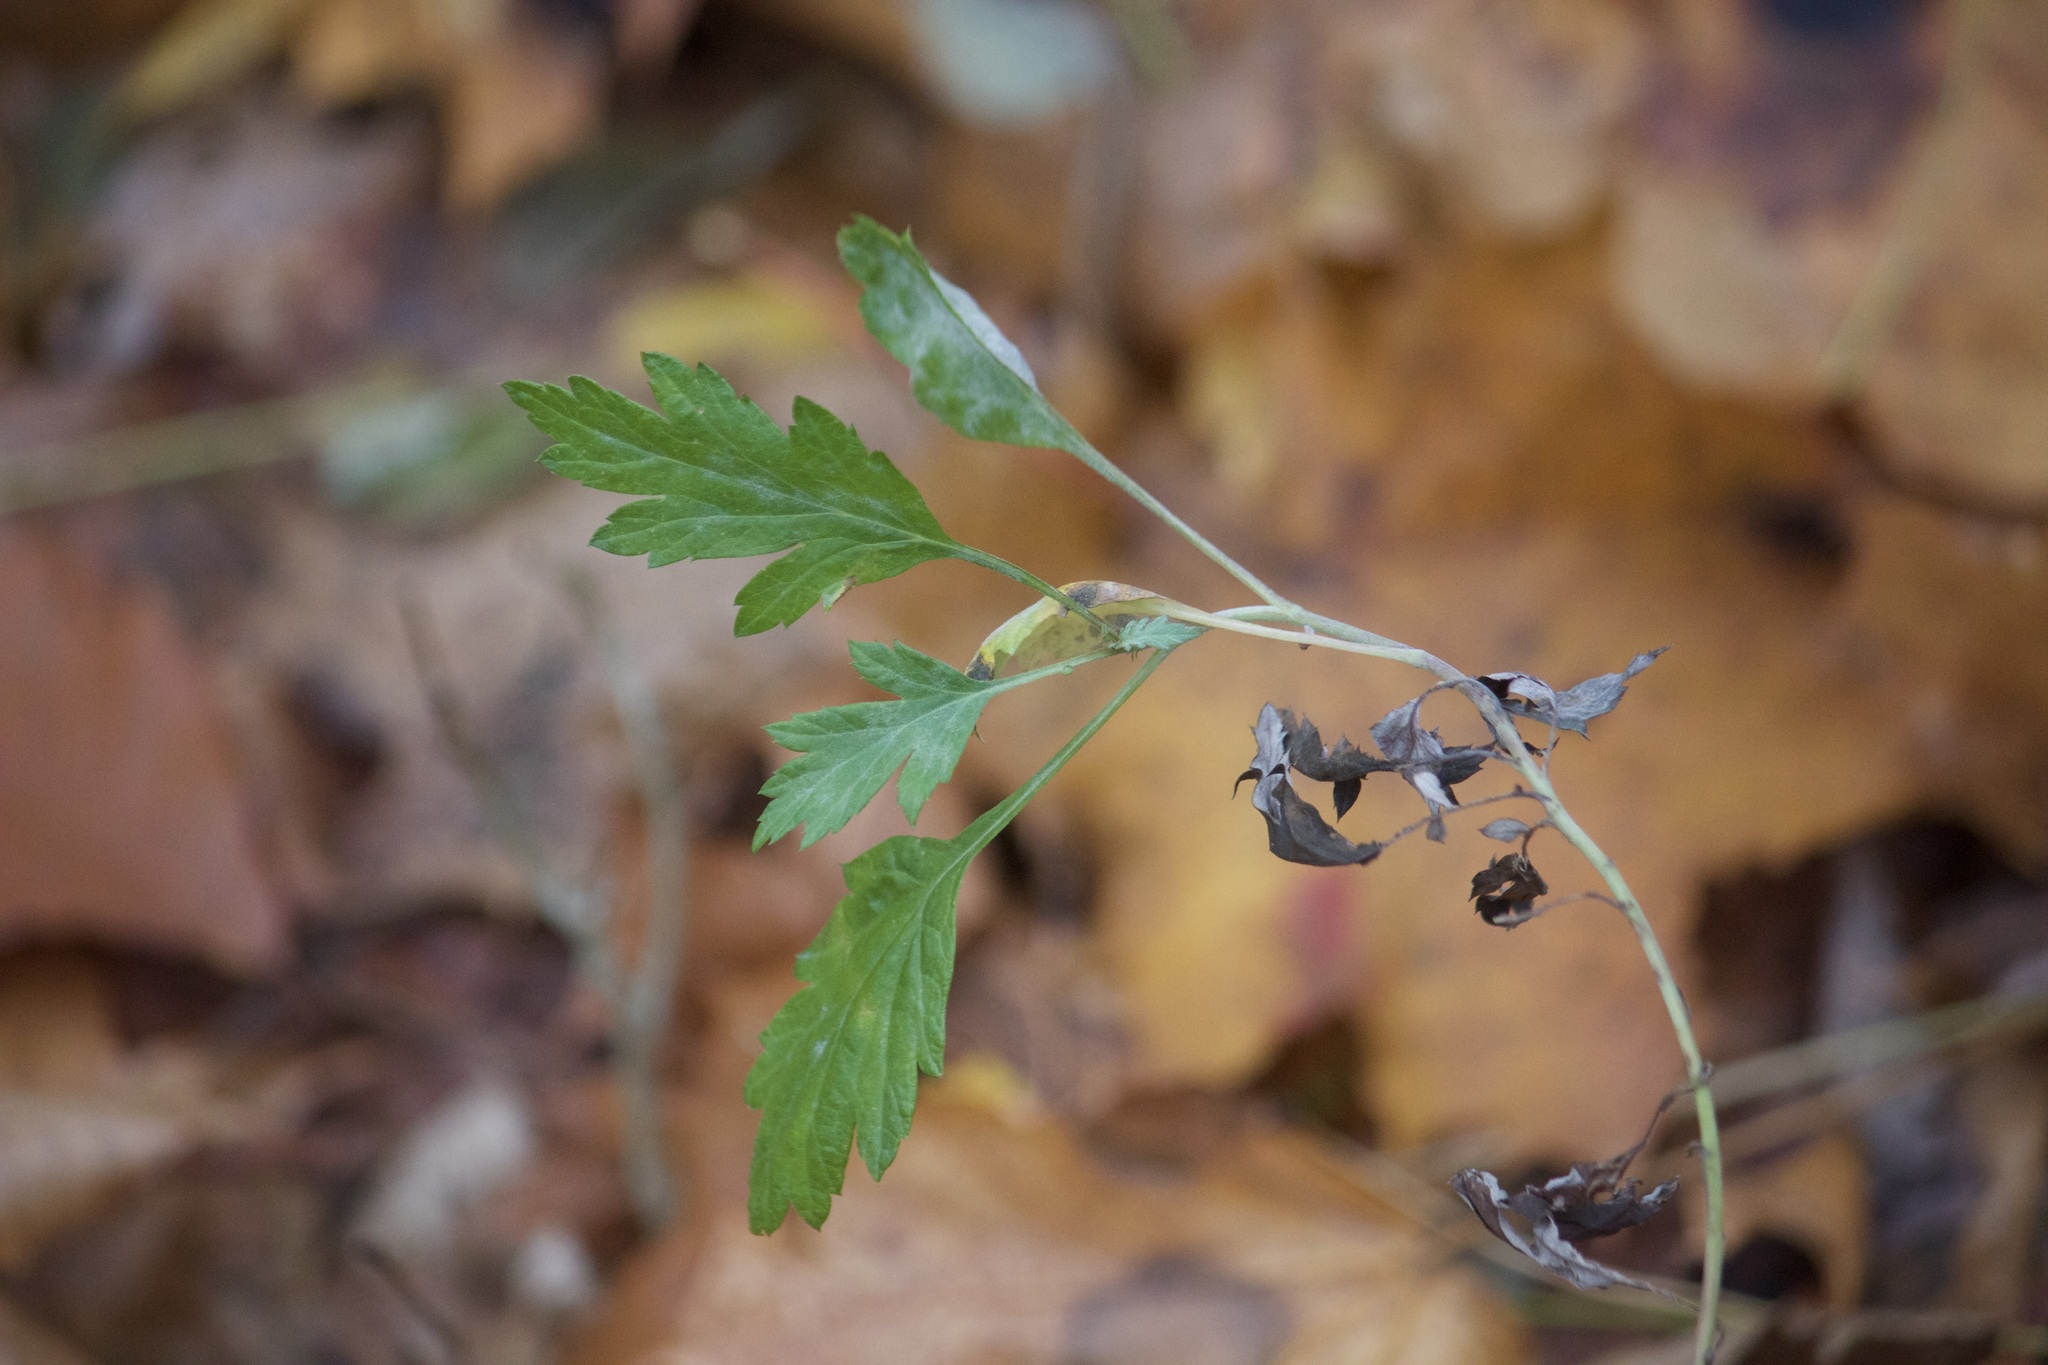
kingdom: Plantae
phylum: Tracheophyta
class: Magnoliopsida
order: Asterales
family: Asteraceae
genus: Artemisia
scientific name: Artemisia vulgaris
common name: Mugwort
